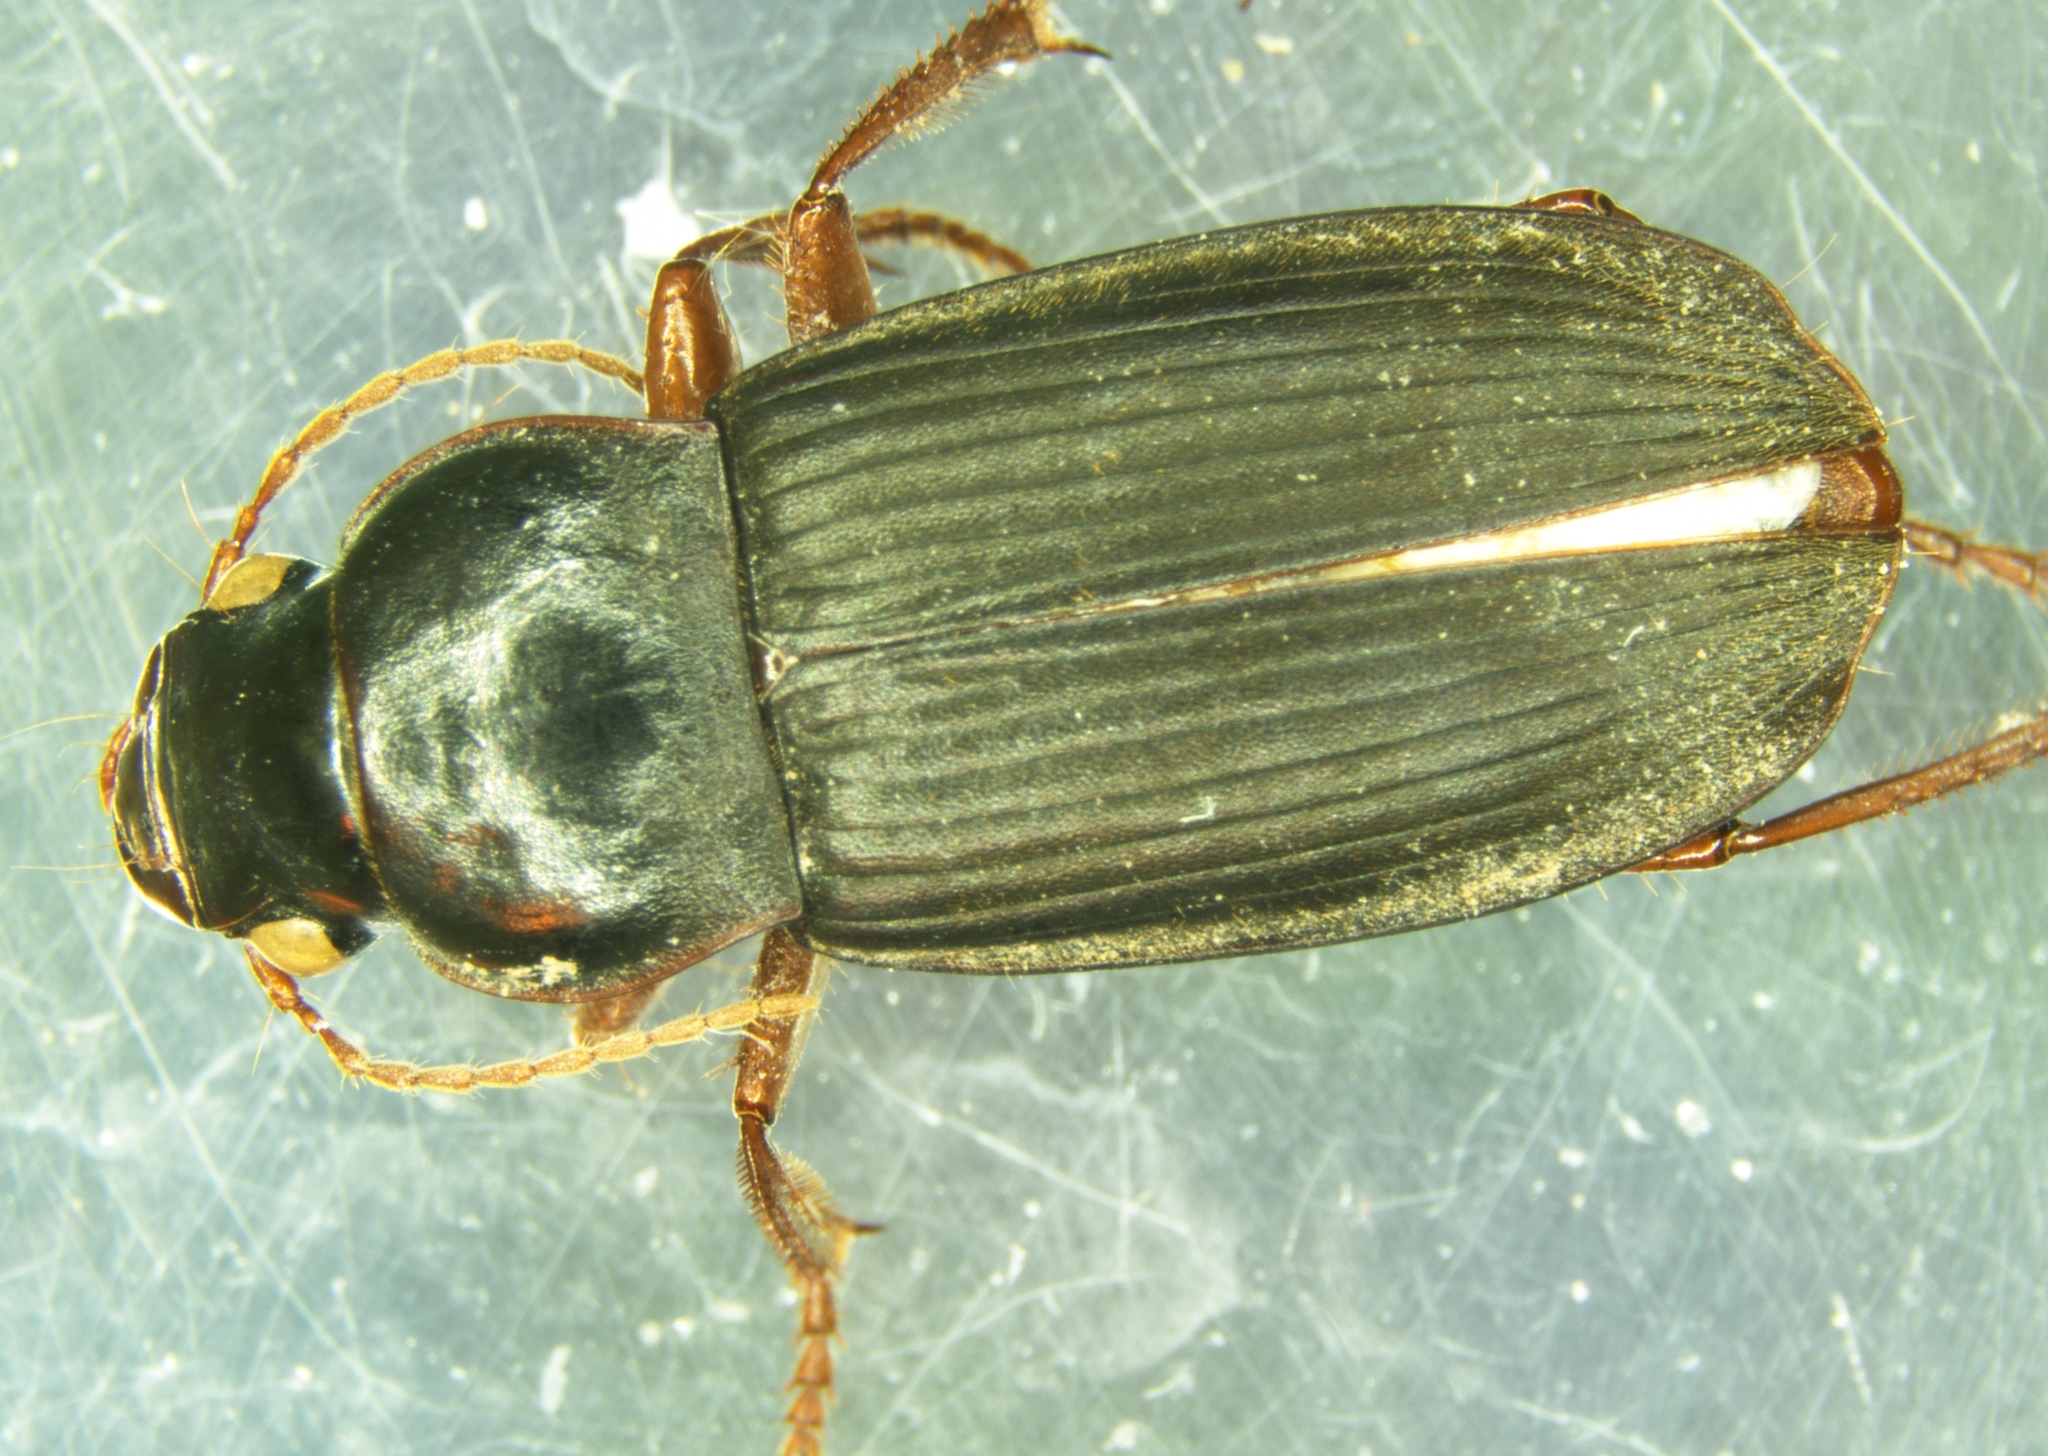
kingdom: Animalia
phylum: Arthropoda
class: Insecta
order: Coleoptera
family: Carabidae
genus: Harpalus
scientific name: Harpalus rufipes
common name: Strawberry harp ground beetle
